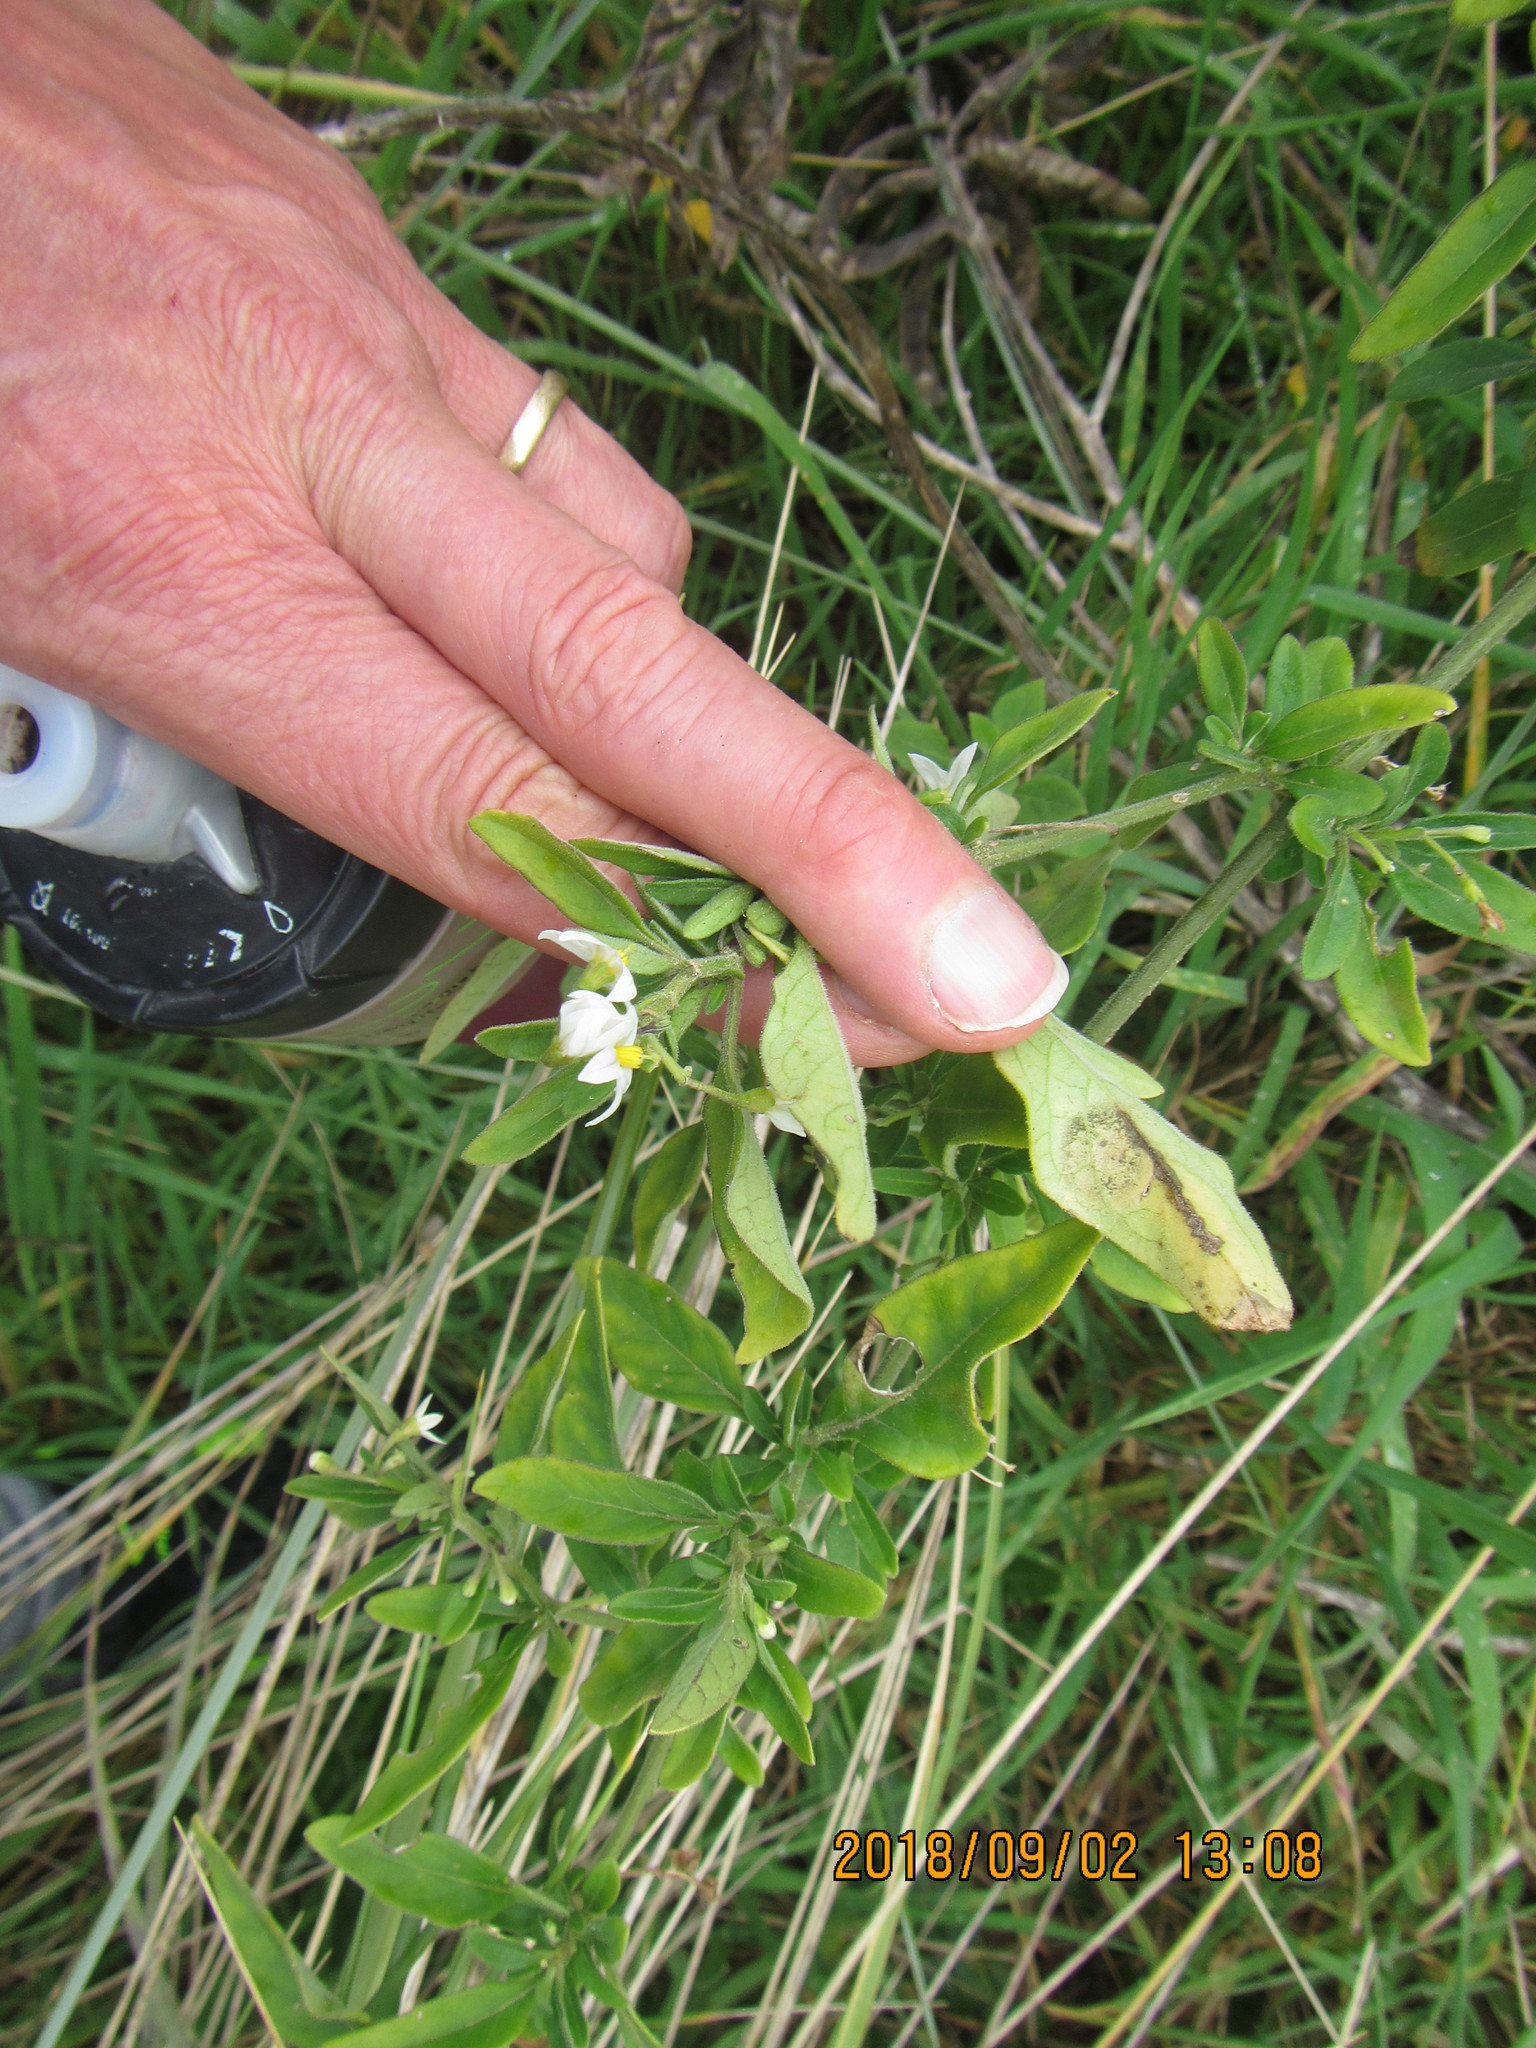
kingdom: Plantae
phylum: Tracheophyta
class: Magnoliopsida
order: Solanales
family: Solanaceae
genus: Solanum
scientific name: Solanum chenopodioides
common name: Tall nightshade
